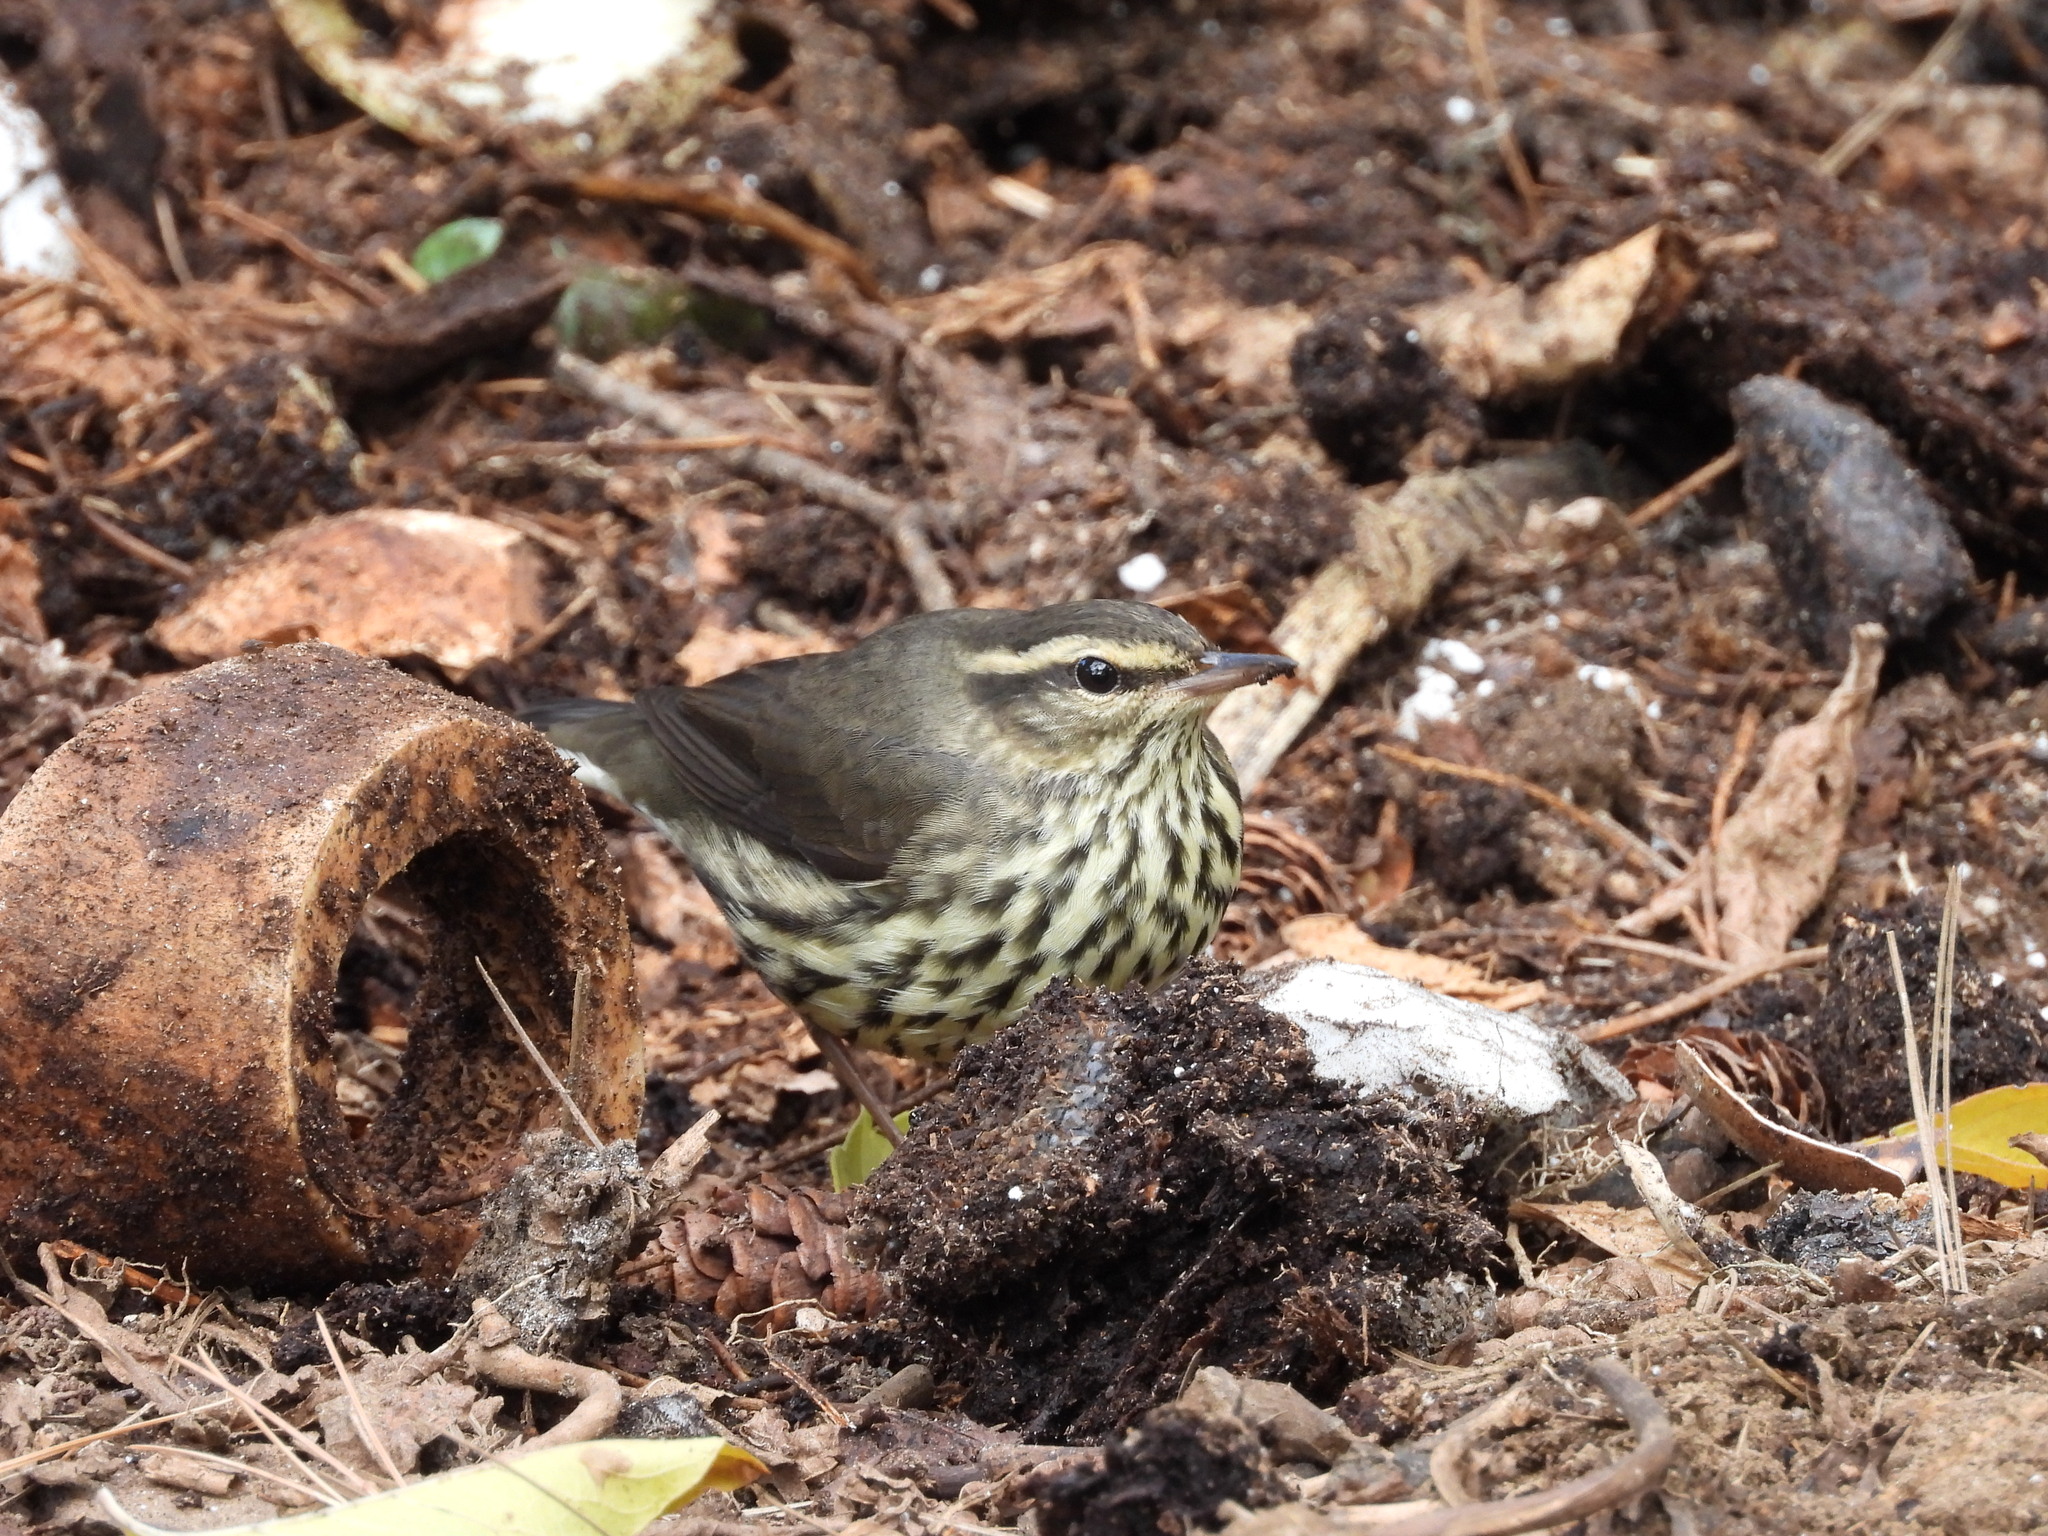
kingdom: Animalia
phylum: Chordata
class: Aves
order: Passeriformes
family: Parulidae
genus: Parkesia
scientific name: Parkesia noveboracensis
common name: Northern waterthrush
